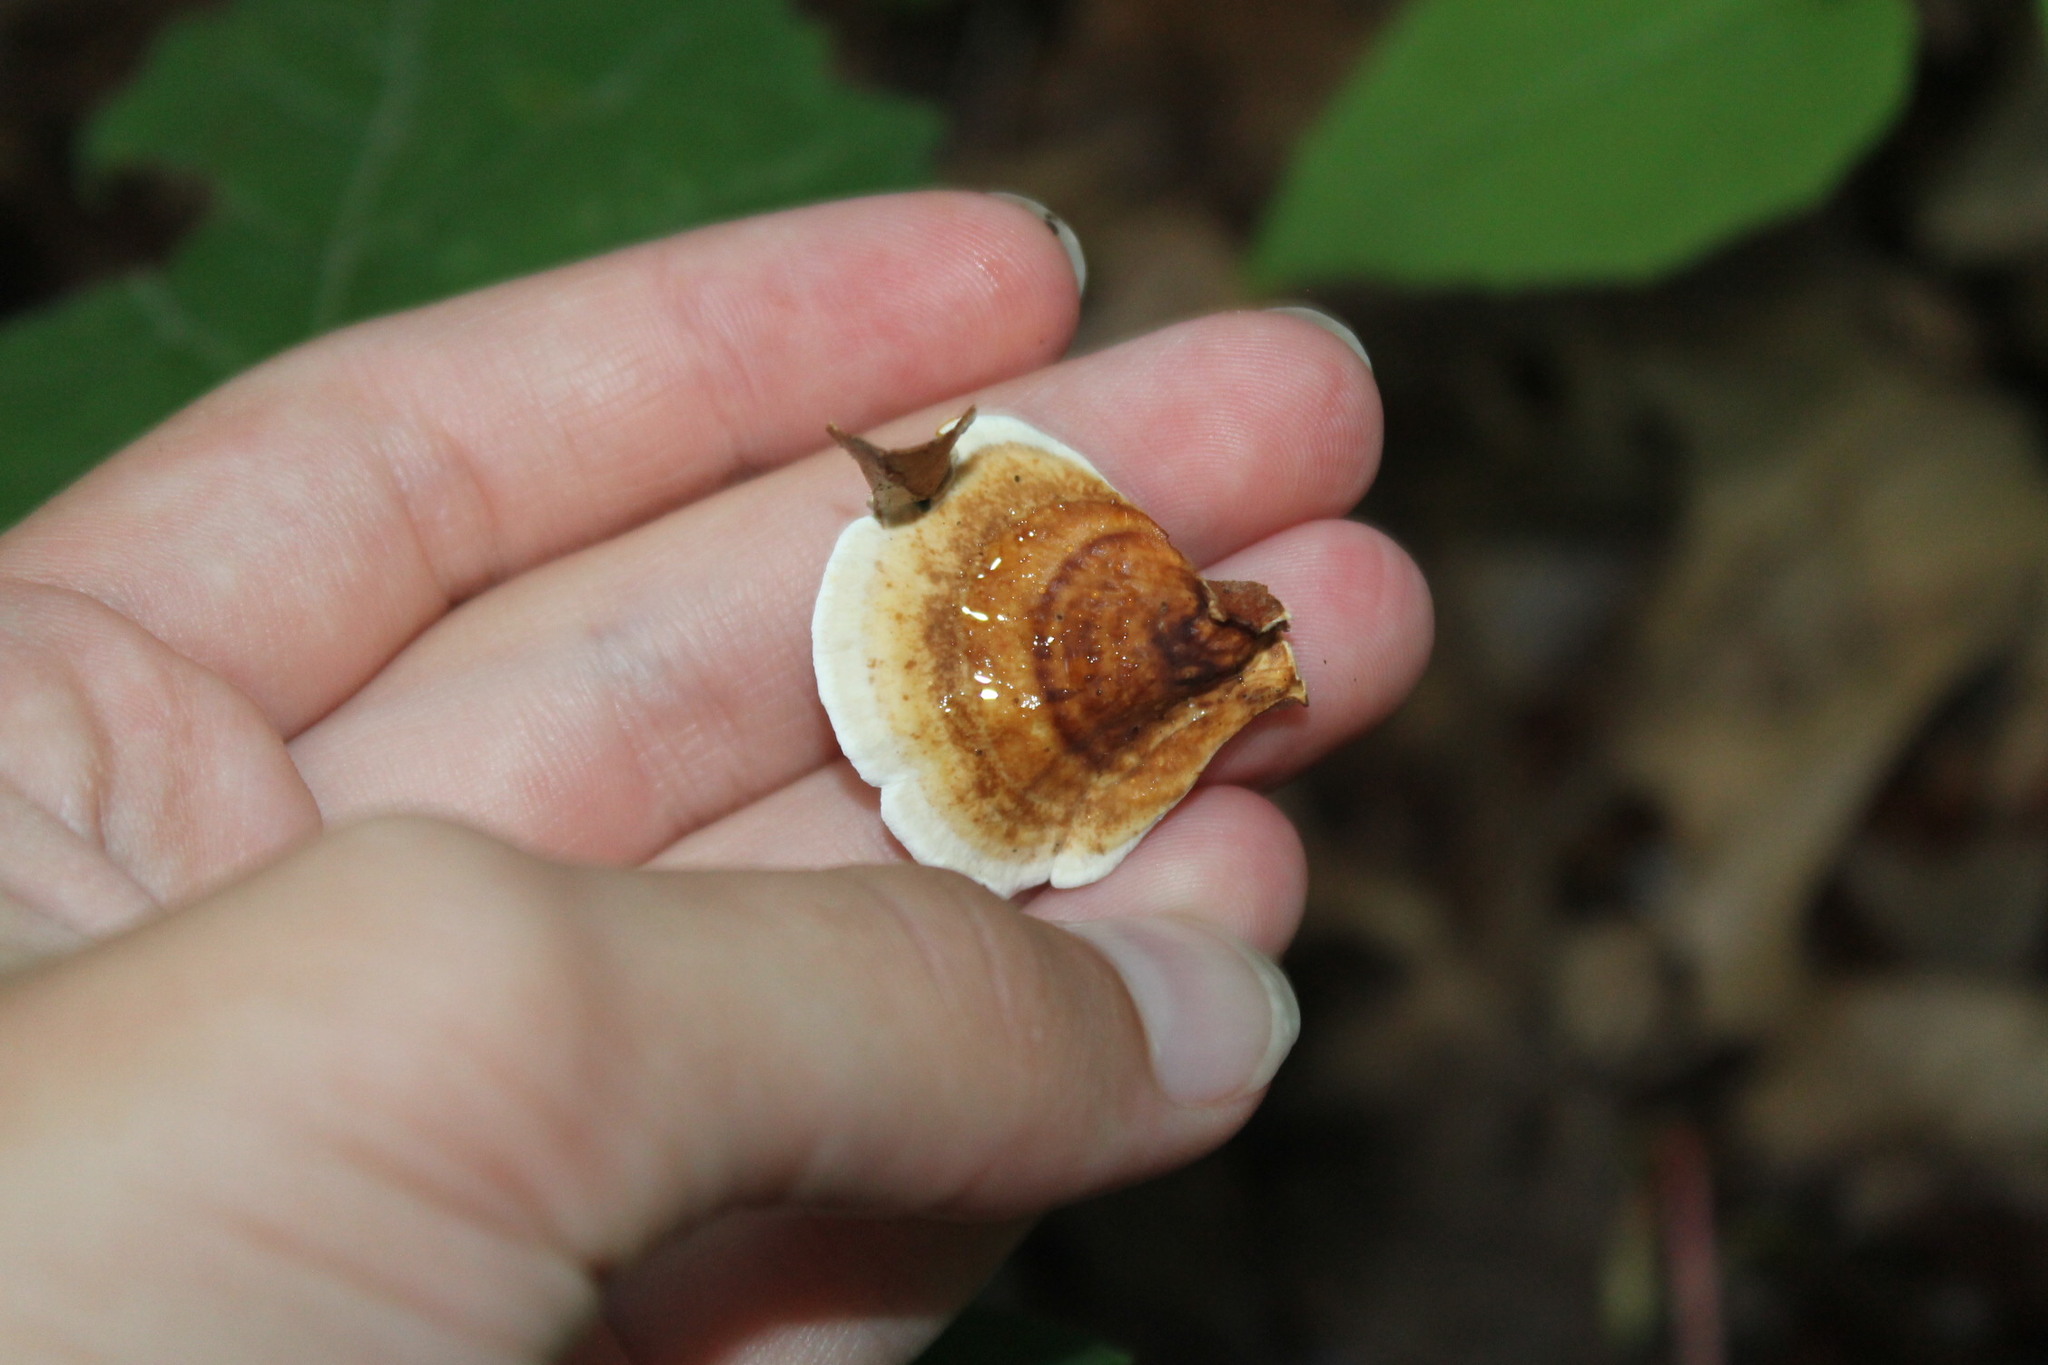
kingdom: Fungi
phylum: Basidiomycota
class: Agaricomycetes
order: Russulales
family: Stereaceae
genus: Stereum
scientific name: Stereum lobatum
